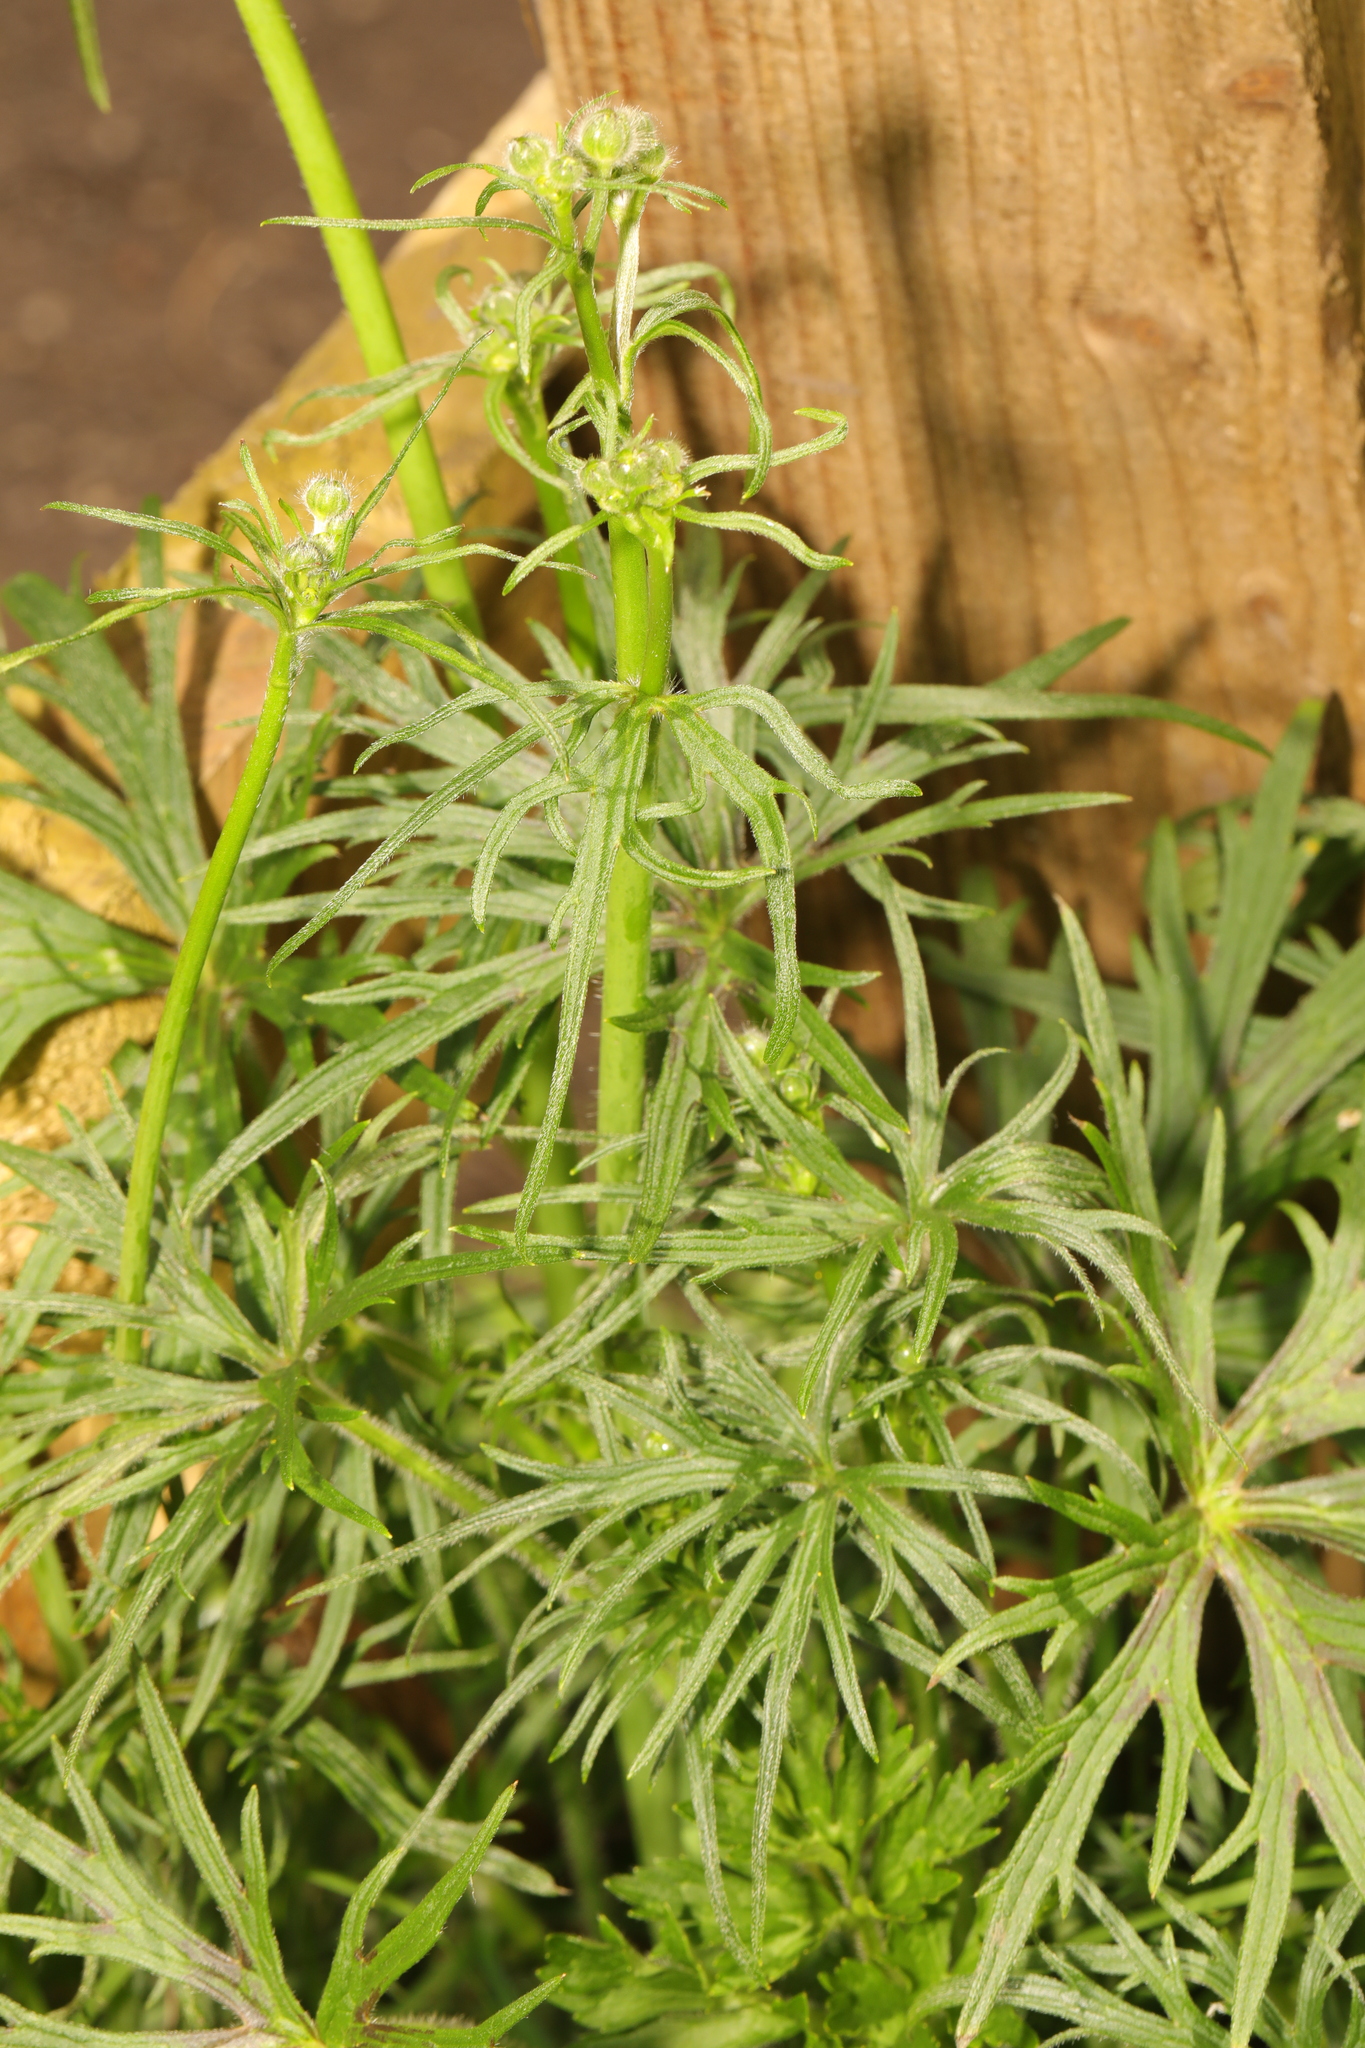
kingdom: Plantae
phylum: Tracheophyta
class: Magnoliopsida
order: Ranunculales
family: Ranunculaceae
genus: Ranunculus
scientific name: Ranunculus acris
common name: Meadow buttercup
